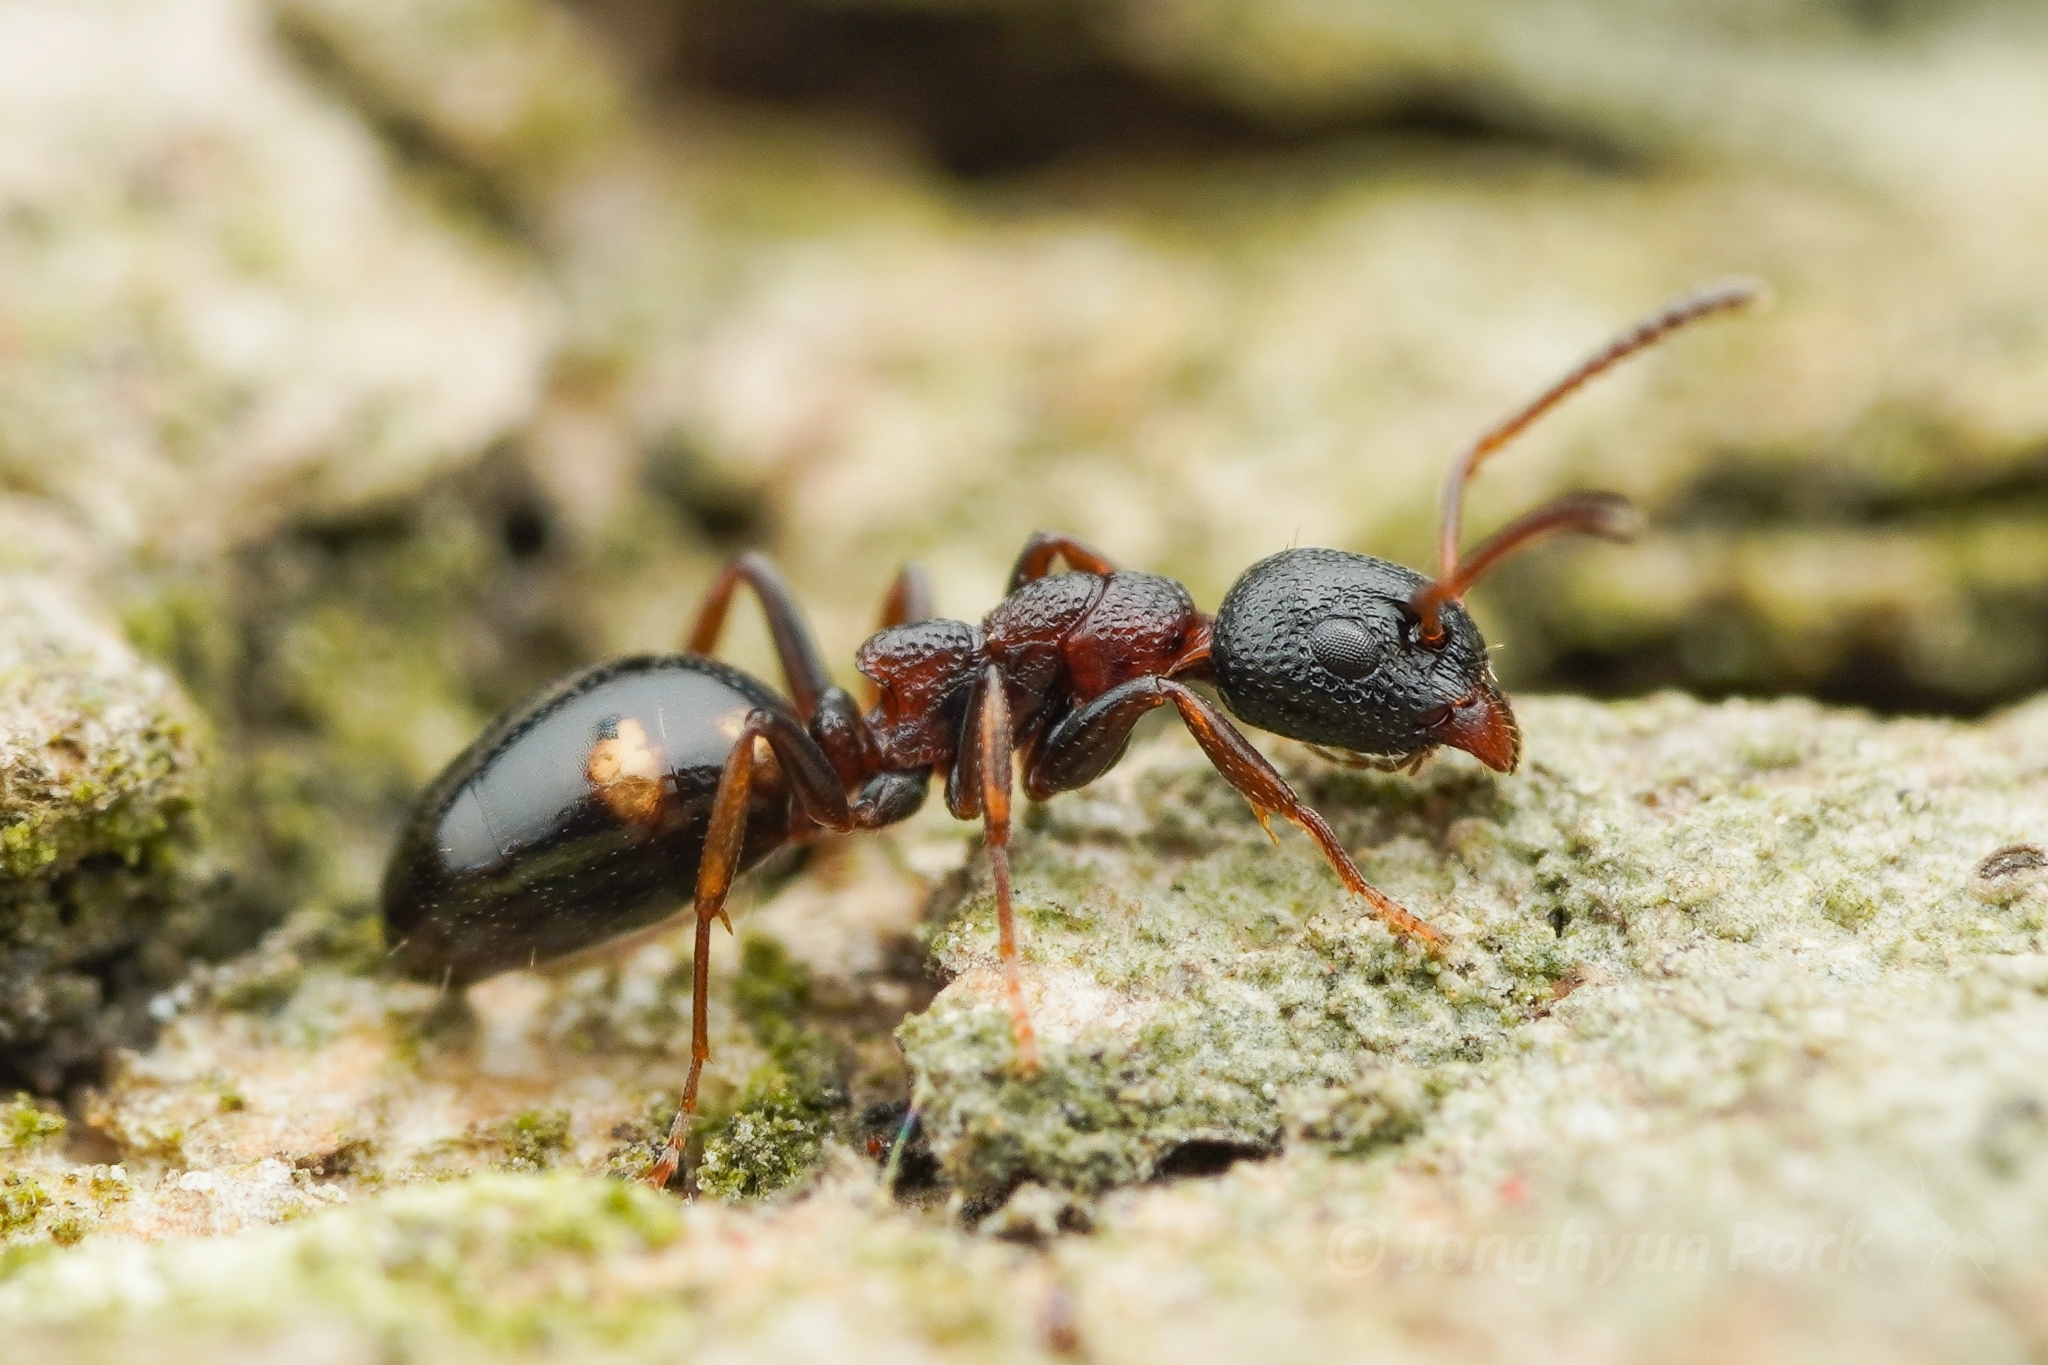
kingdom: Animalia
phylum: Arthropoda
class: Insecta
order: Hymenoptera
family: Formicidae
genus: Dolichoderus
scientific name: Dolichoderus sibiricus
